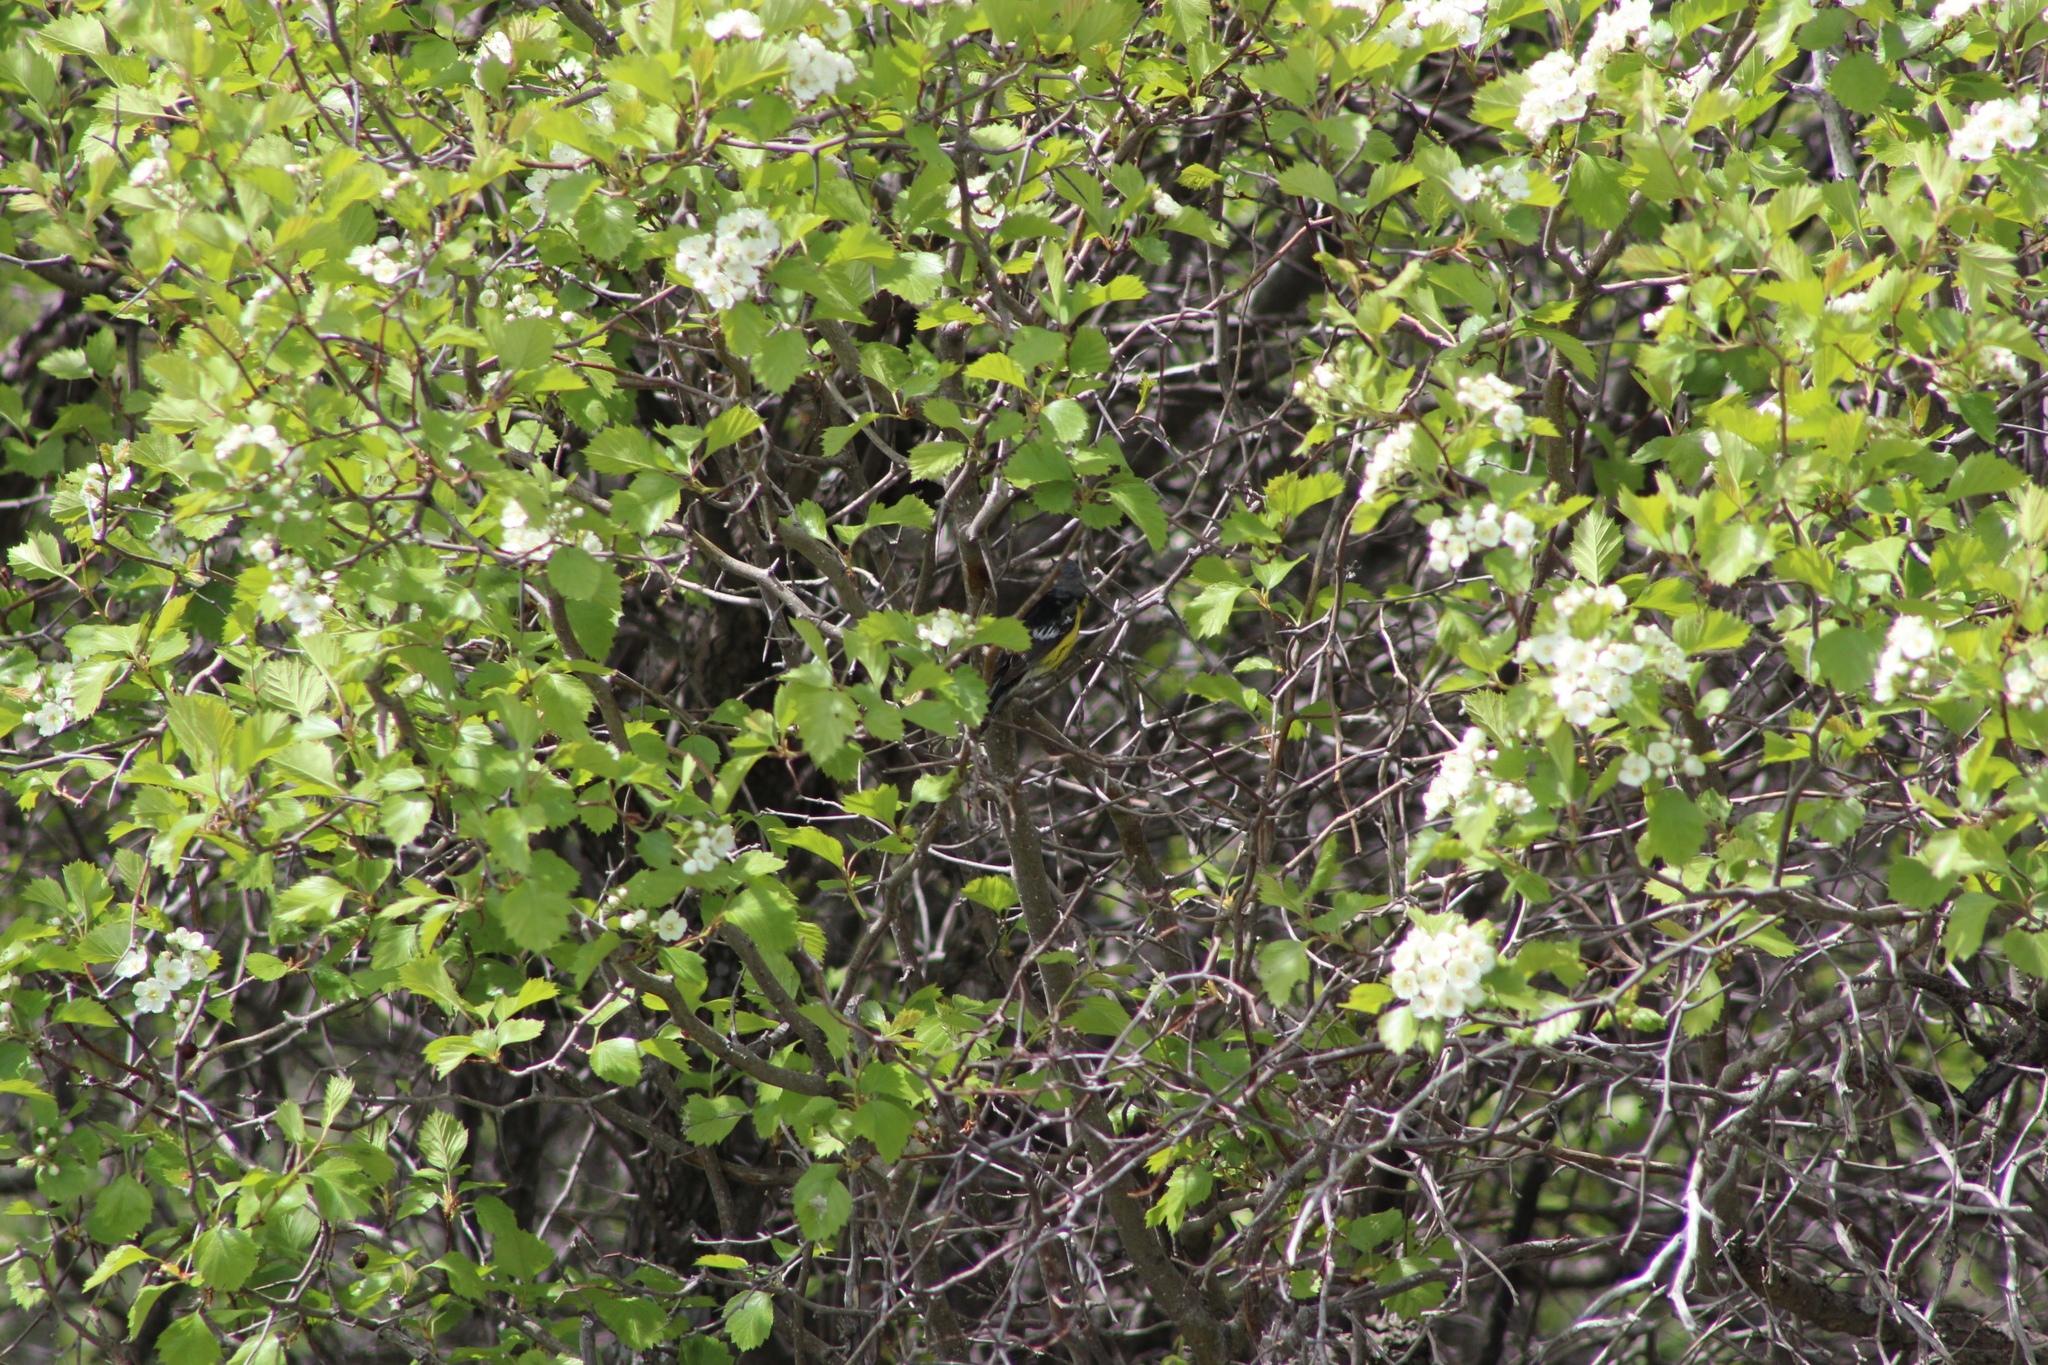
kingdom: Animalia
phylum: Chordata
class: Aves
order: Passeriformes
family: Parulidae
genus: Setophaga
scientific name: Setophaga magnolia
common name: Magnolia warbler
